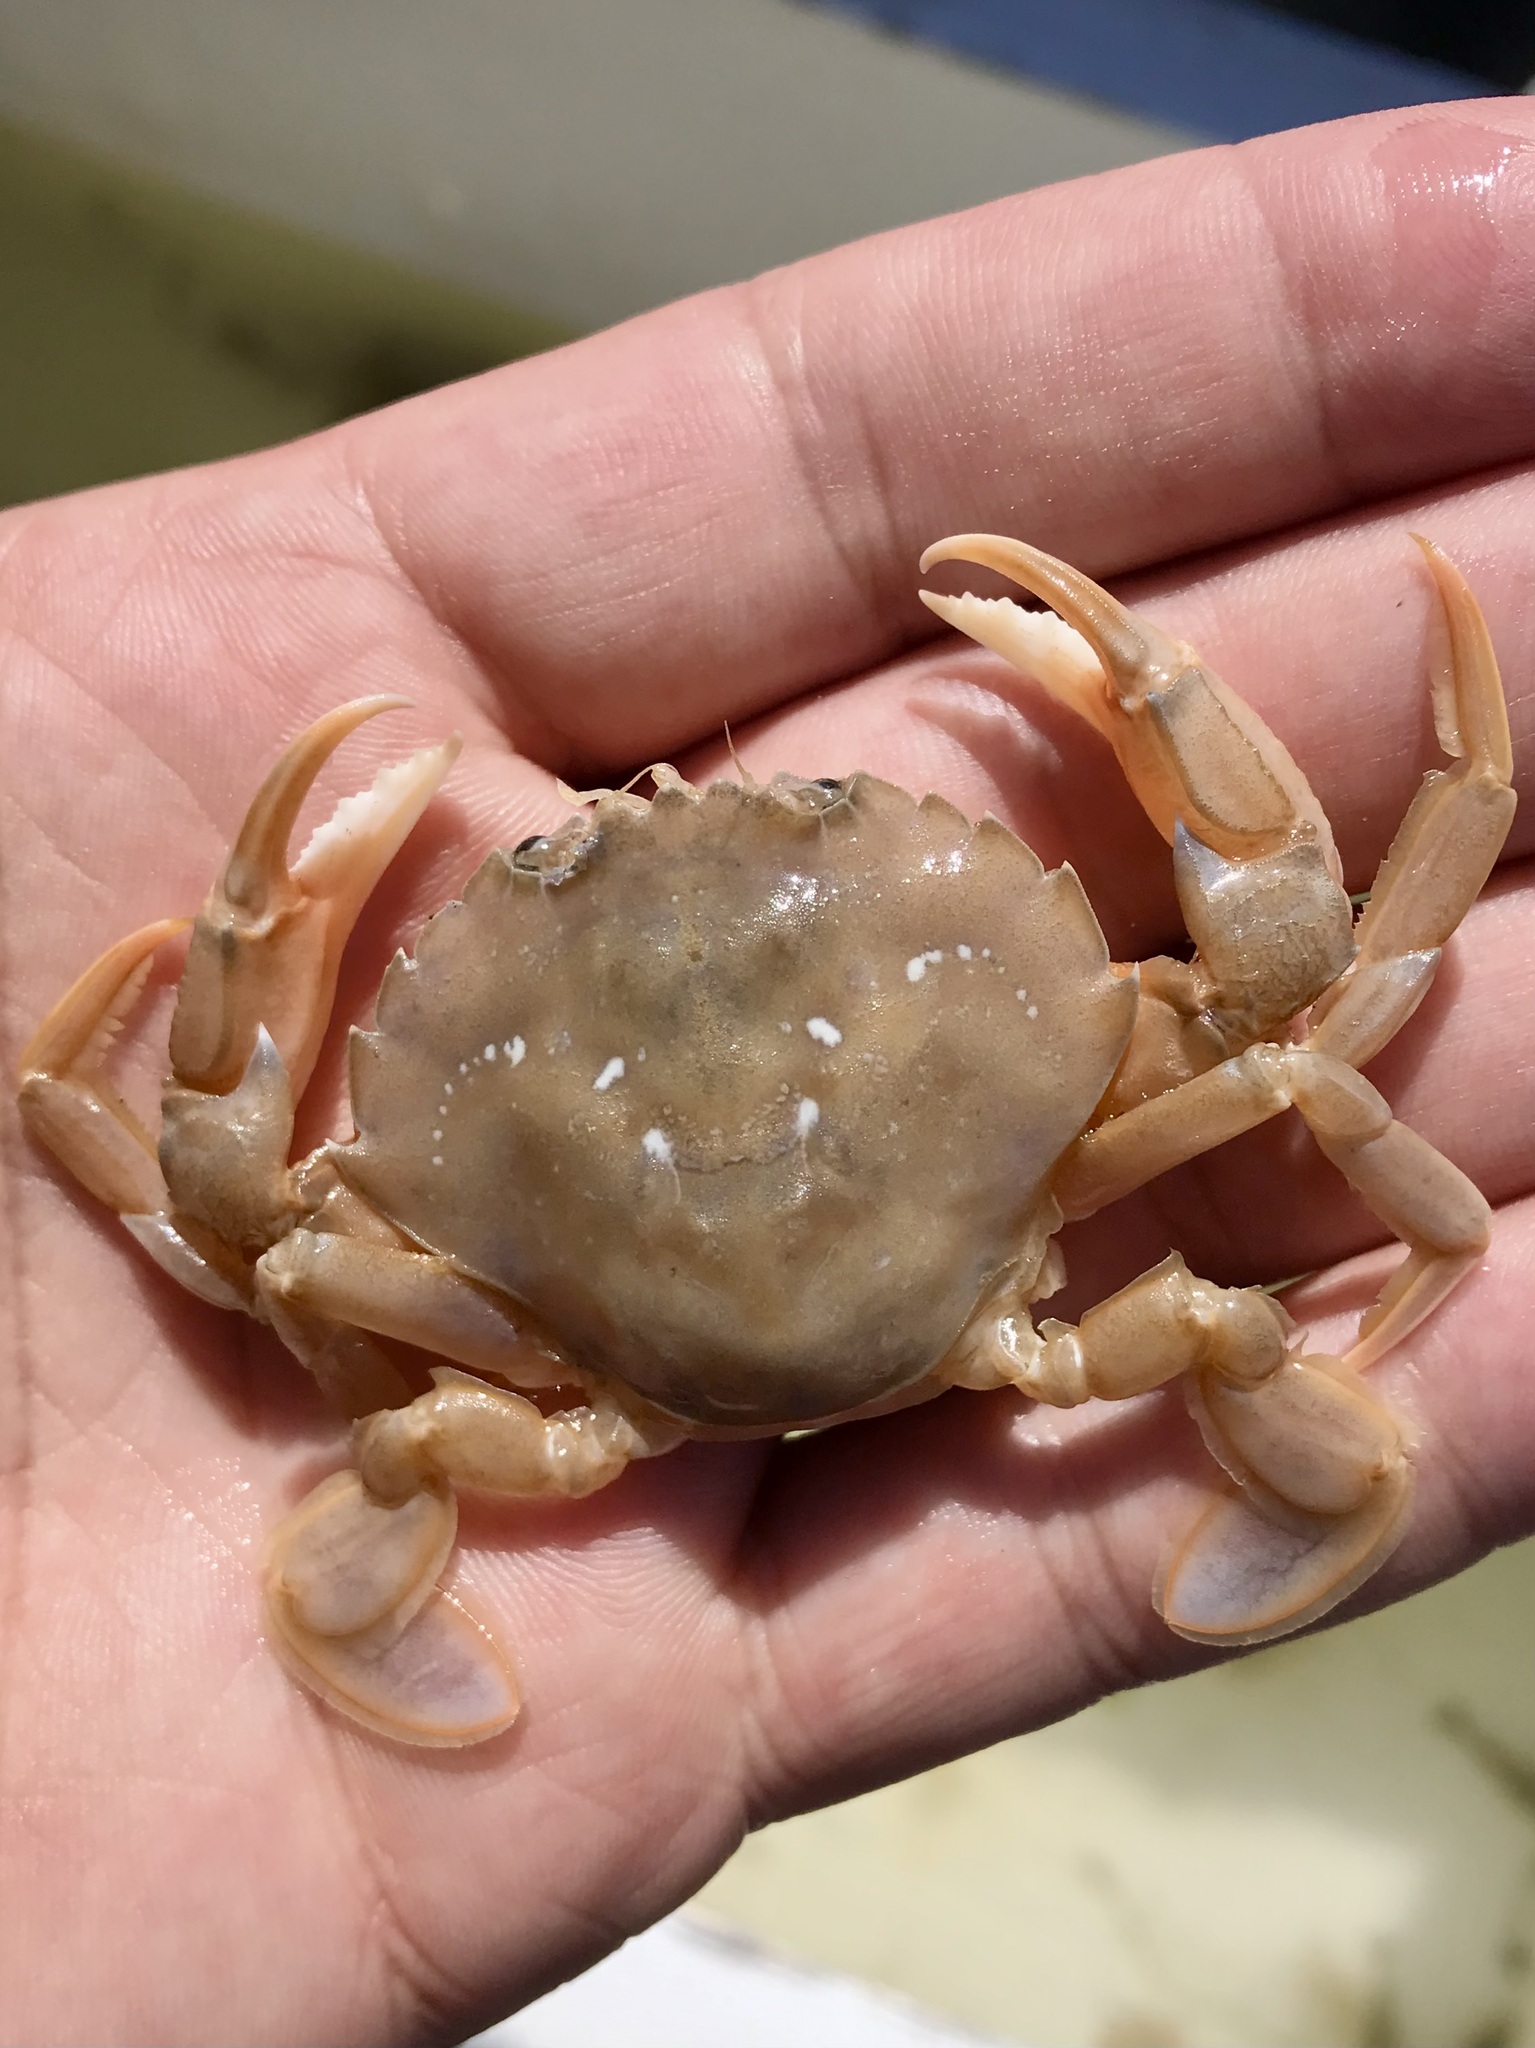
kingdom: Animalia
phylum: Arthropoda
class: Malacostraca
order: Decapoda
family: Polybiidae
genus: Liocarcinus
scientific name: Liocarcinus holsatus
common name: Flying crab
